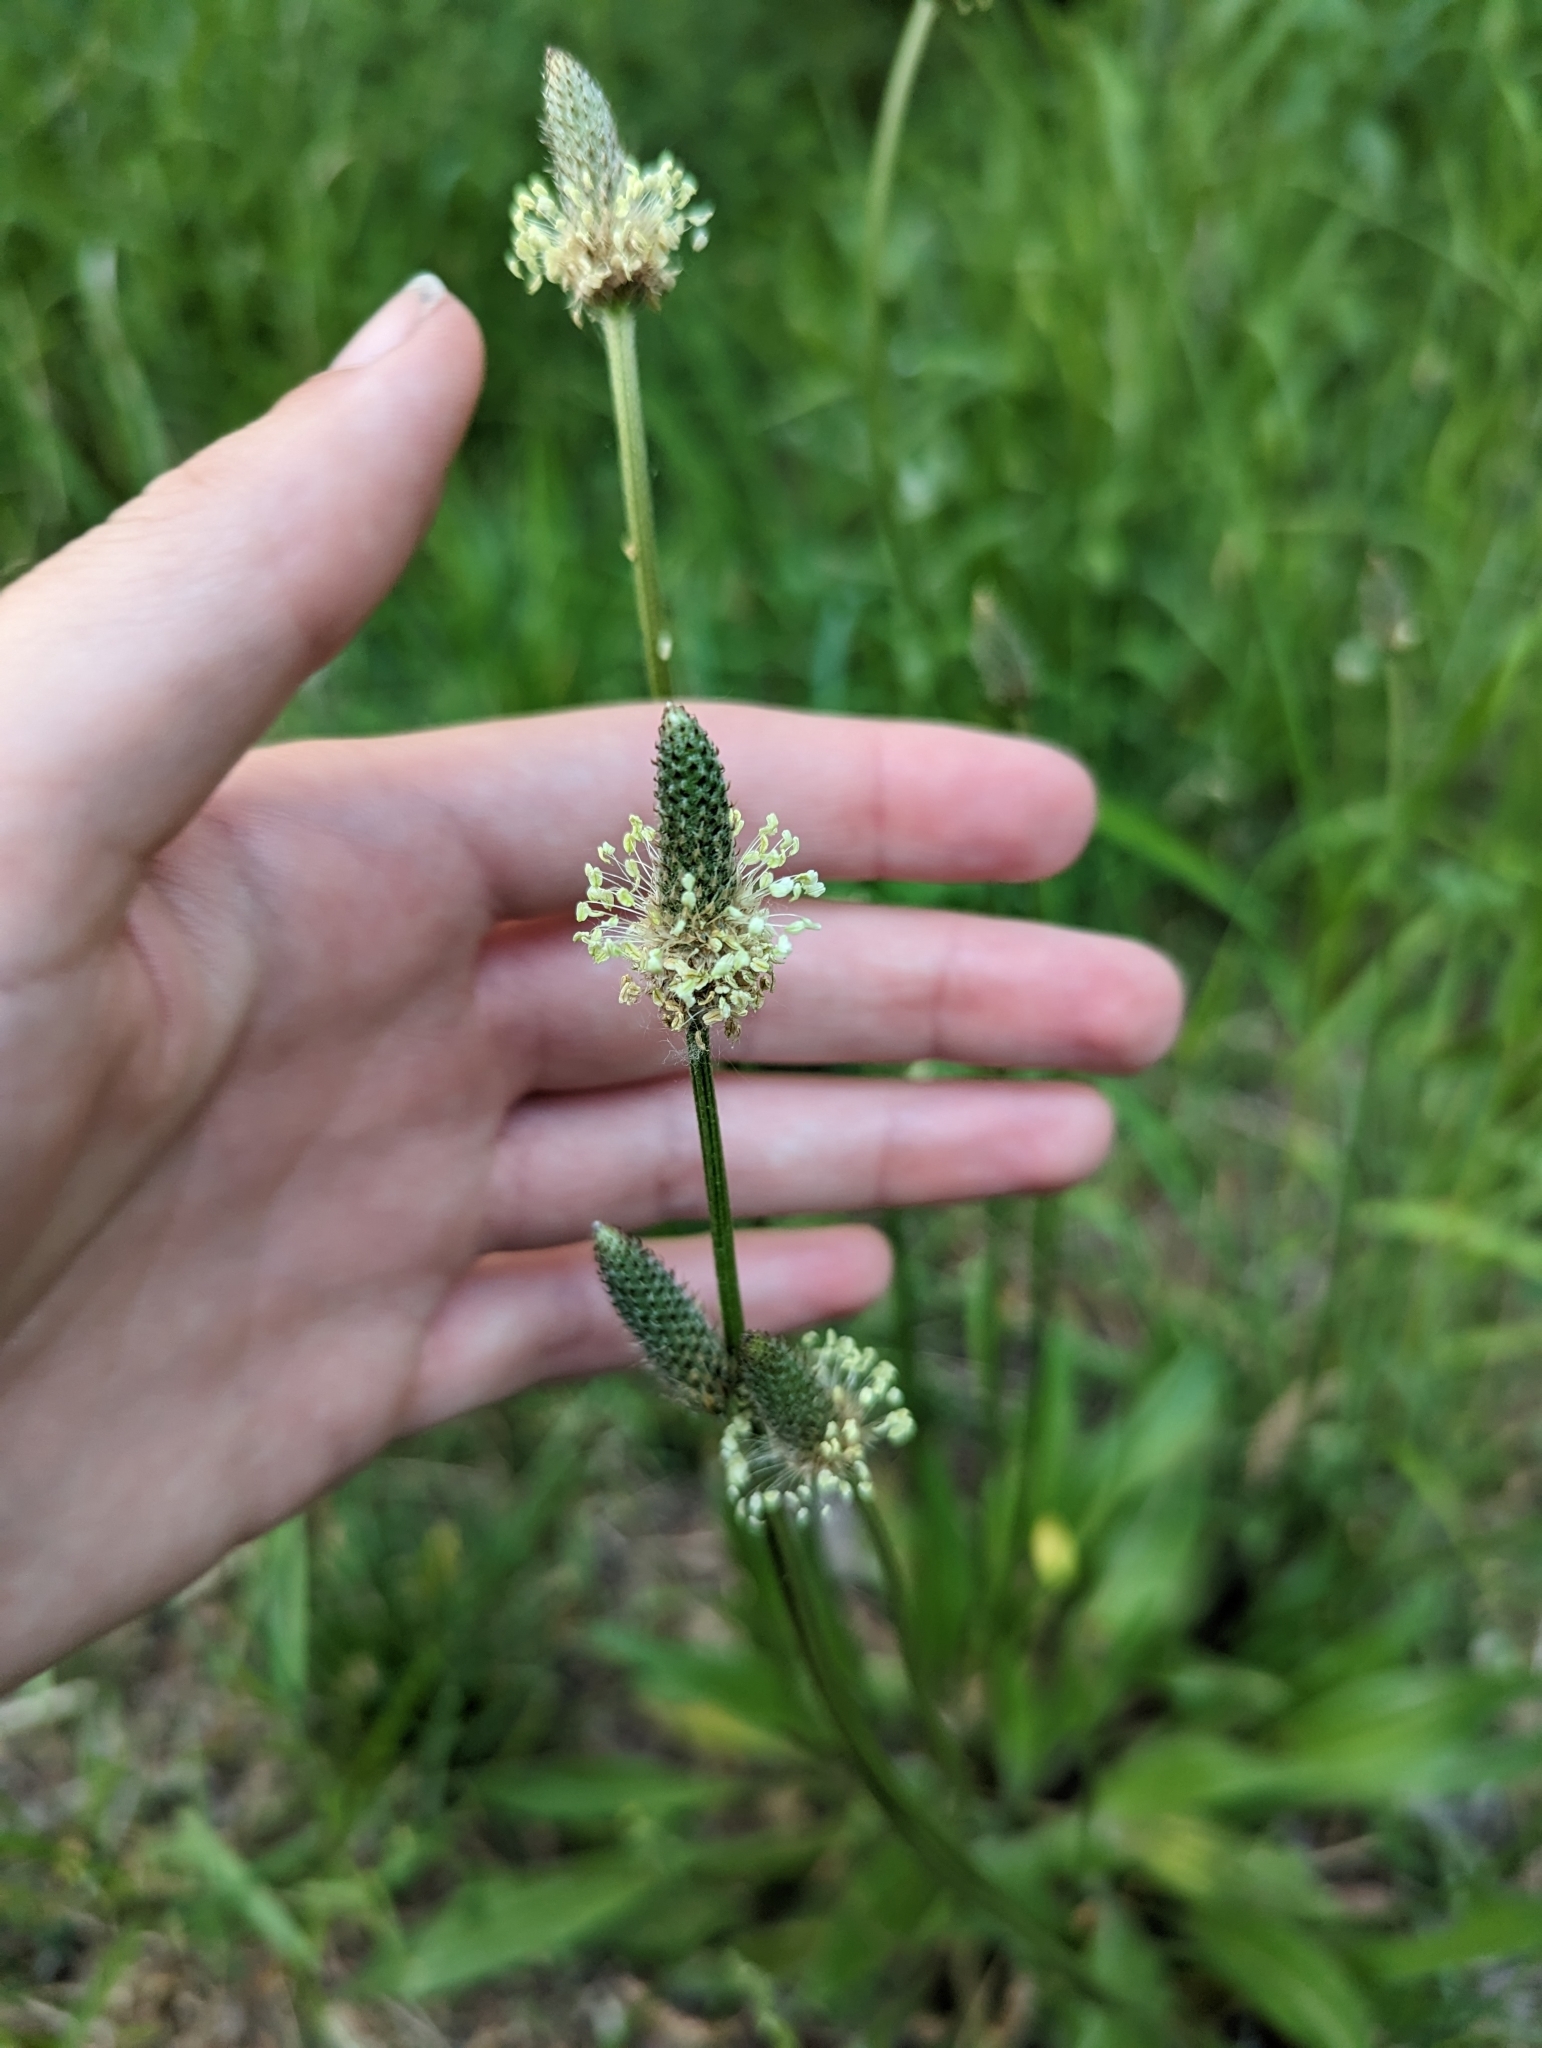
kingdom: Plantae
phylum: Tracheophyta
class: Magnoliopsida
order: Lamiales
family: Plantaginaceae
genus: Plantago
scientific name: Plantago lanceolata
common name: Ribwort plantain
